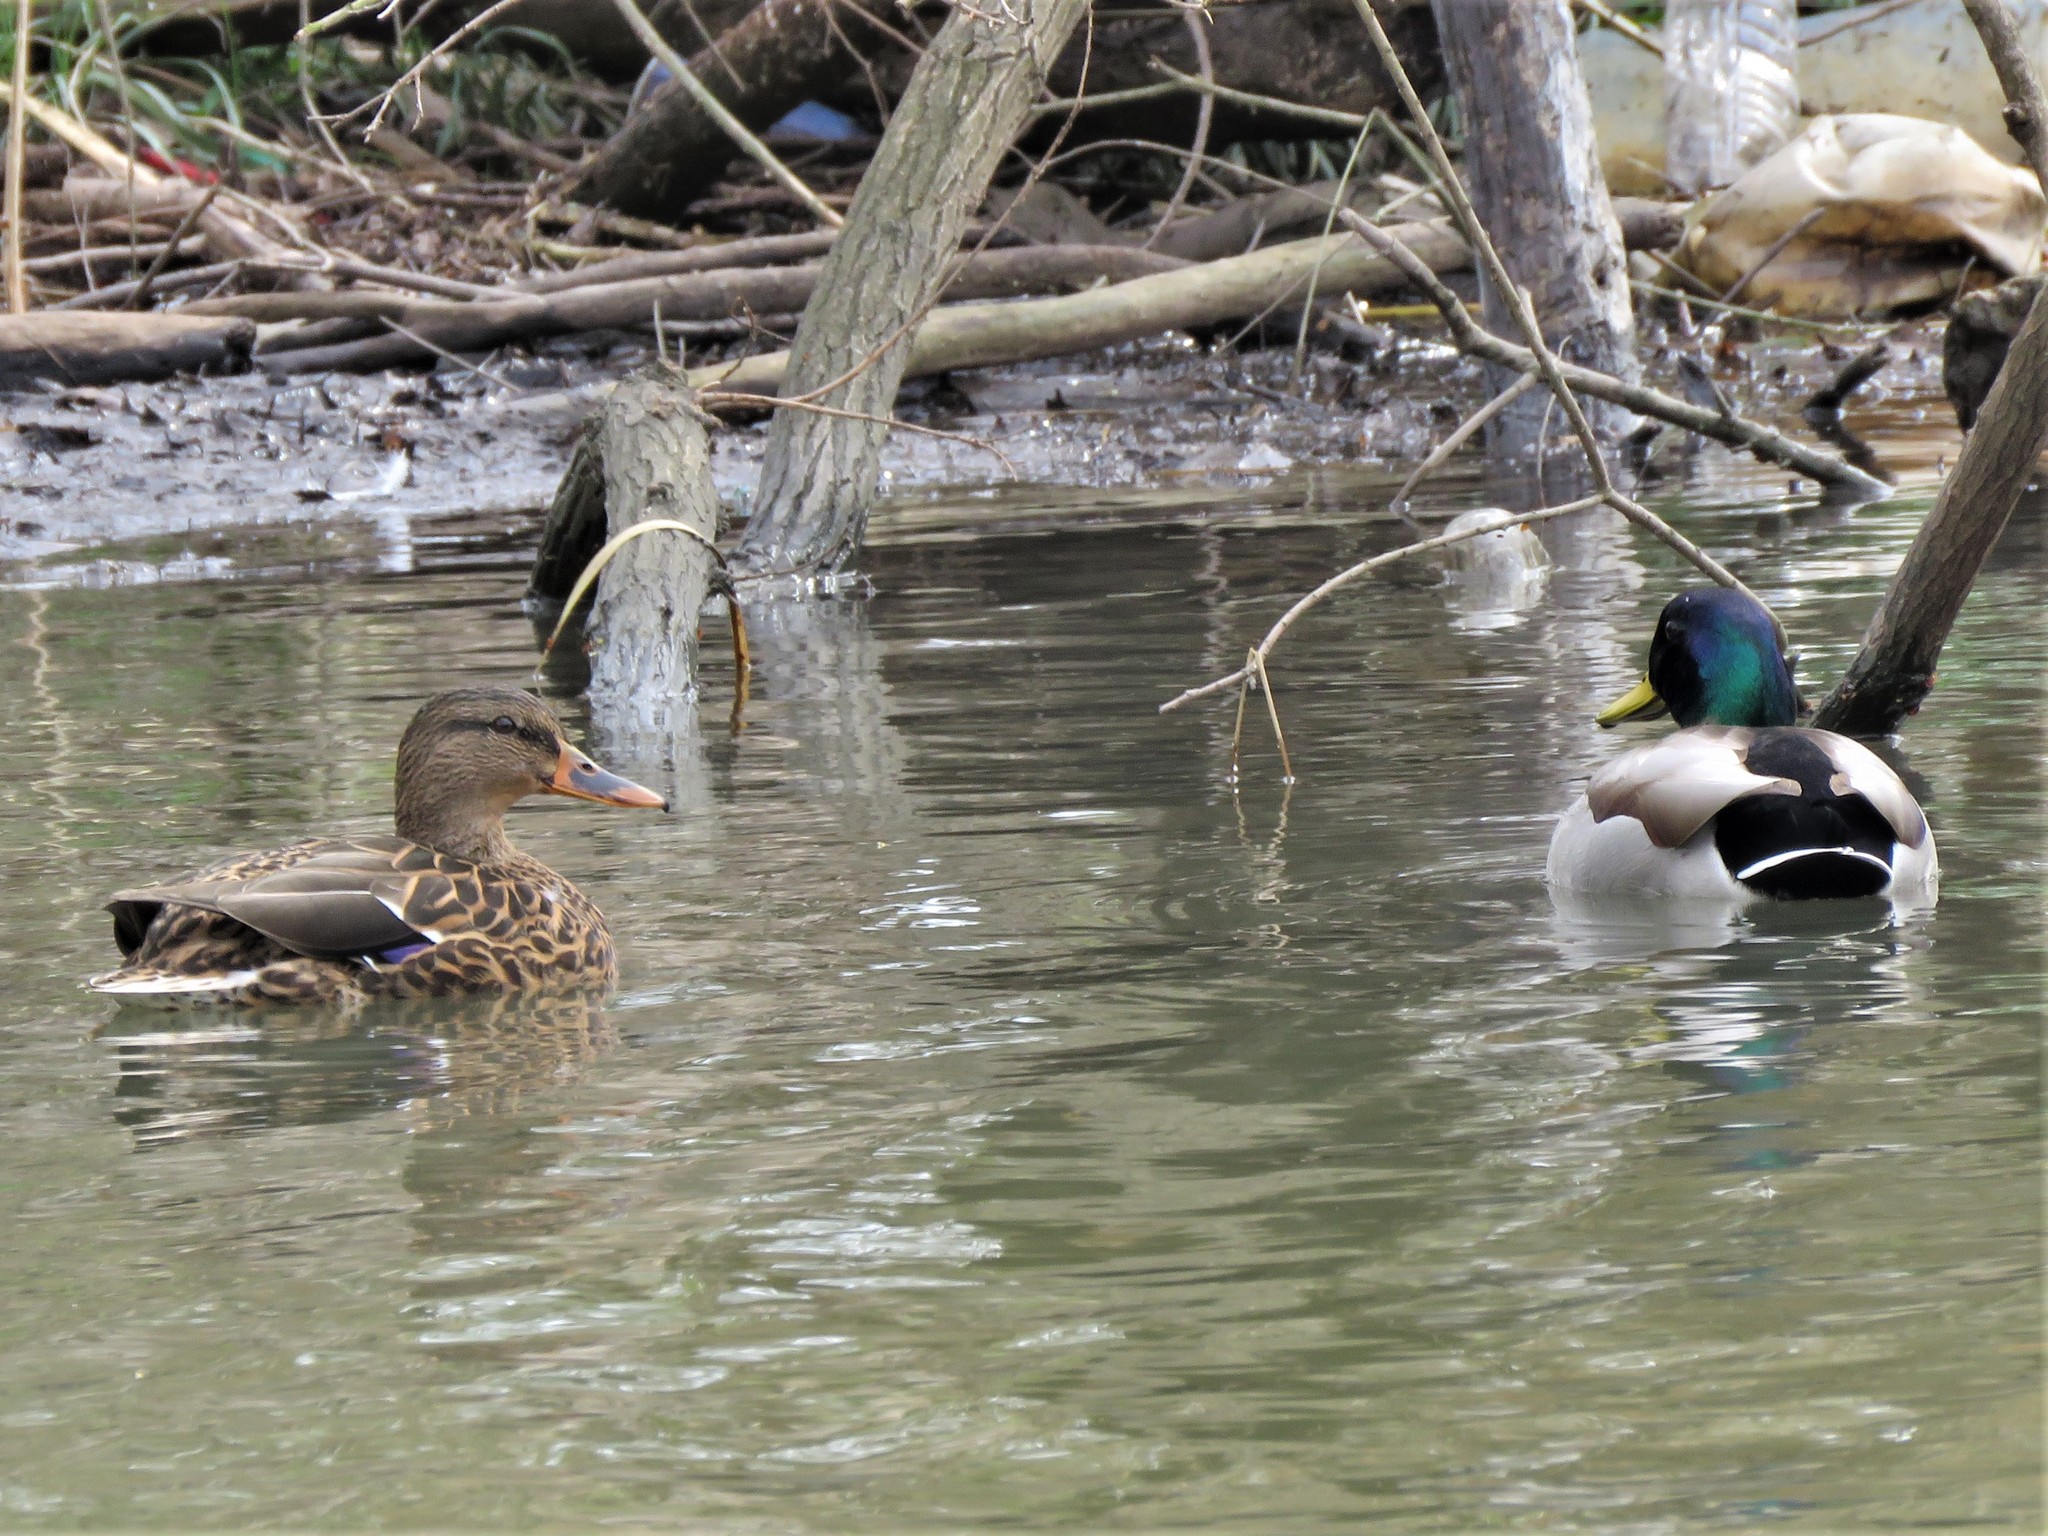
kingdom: Animalia
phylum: Chordata
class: Aves
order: Anseriformes
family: Anatidae
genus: Anas
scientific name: Anas platyrhynchos
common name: Mallard
